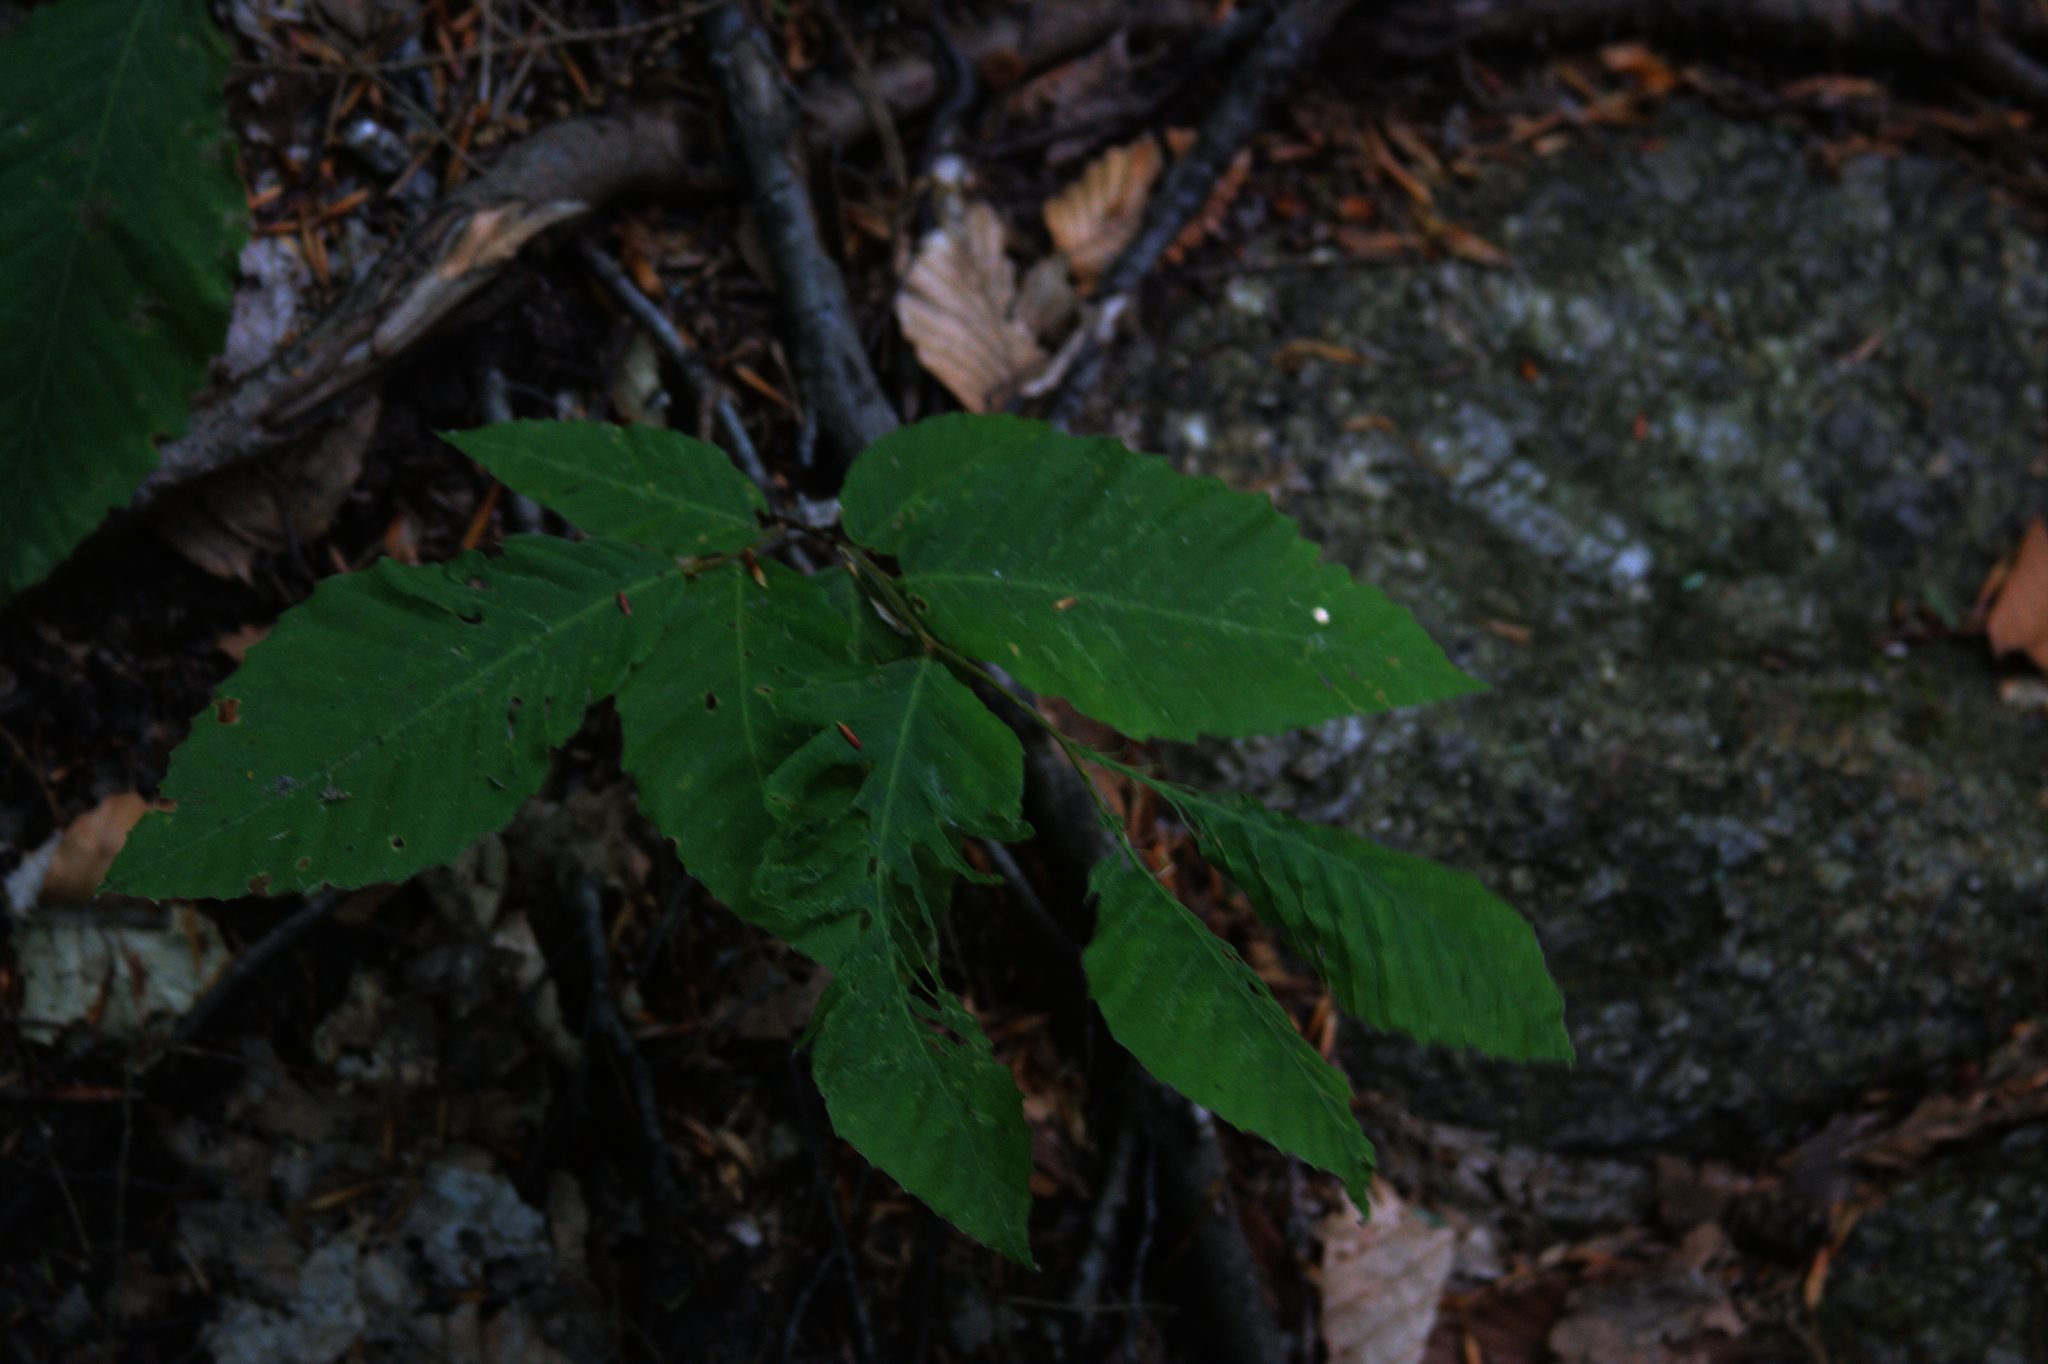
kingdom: Plantae
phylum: Tracheophyta
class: Magnoliopsida
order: Fagales
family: Fagaceae
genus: Fagus
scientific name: Fagus grandifolia
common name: American beech
